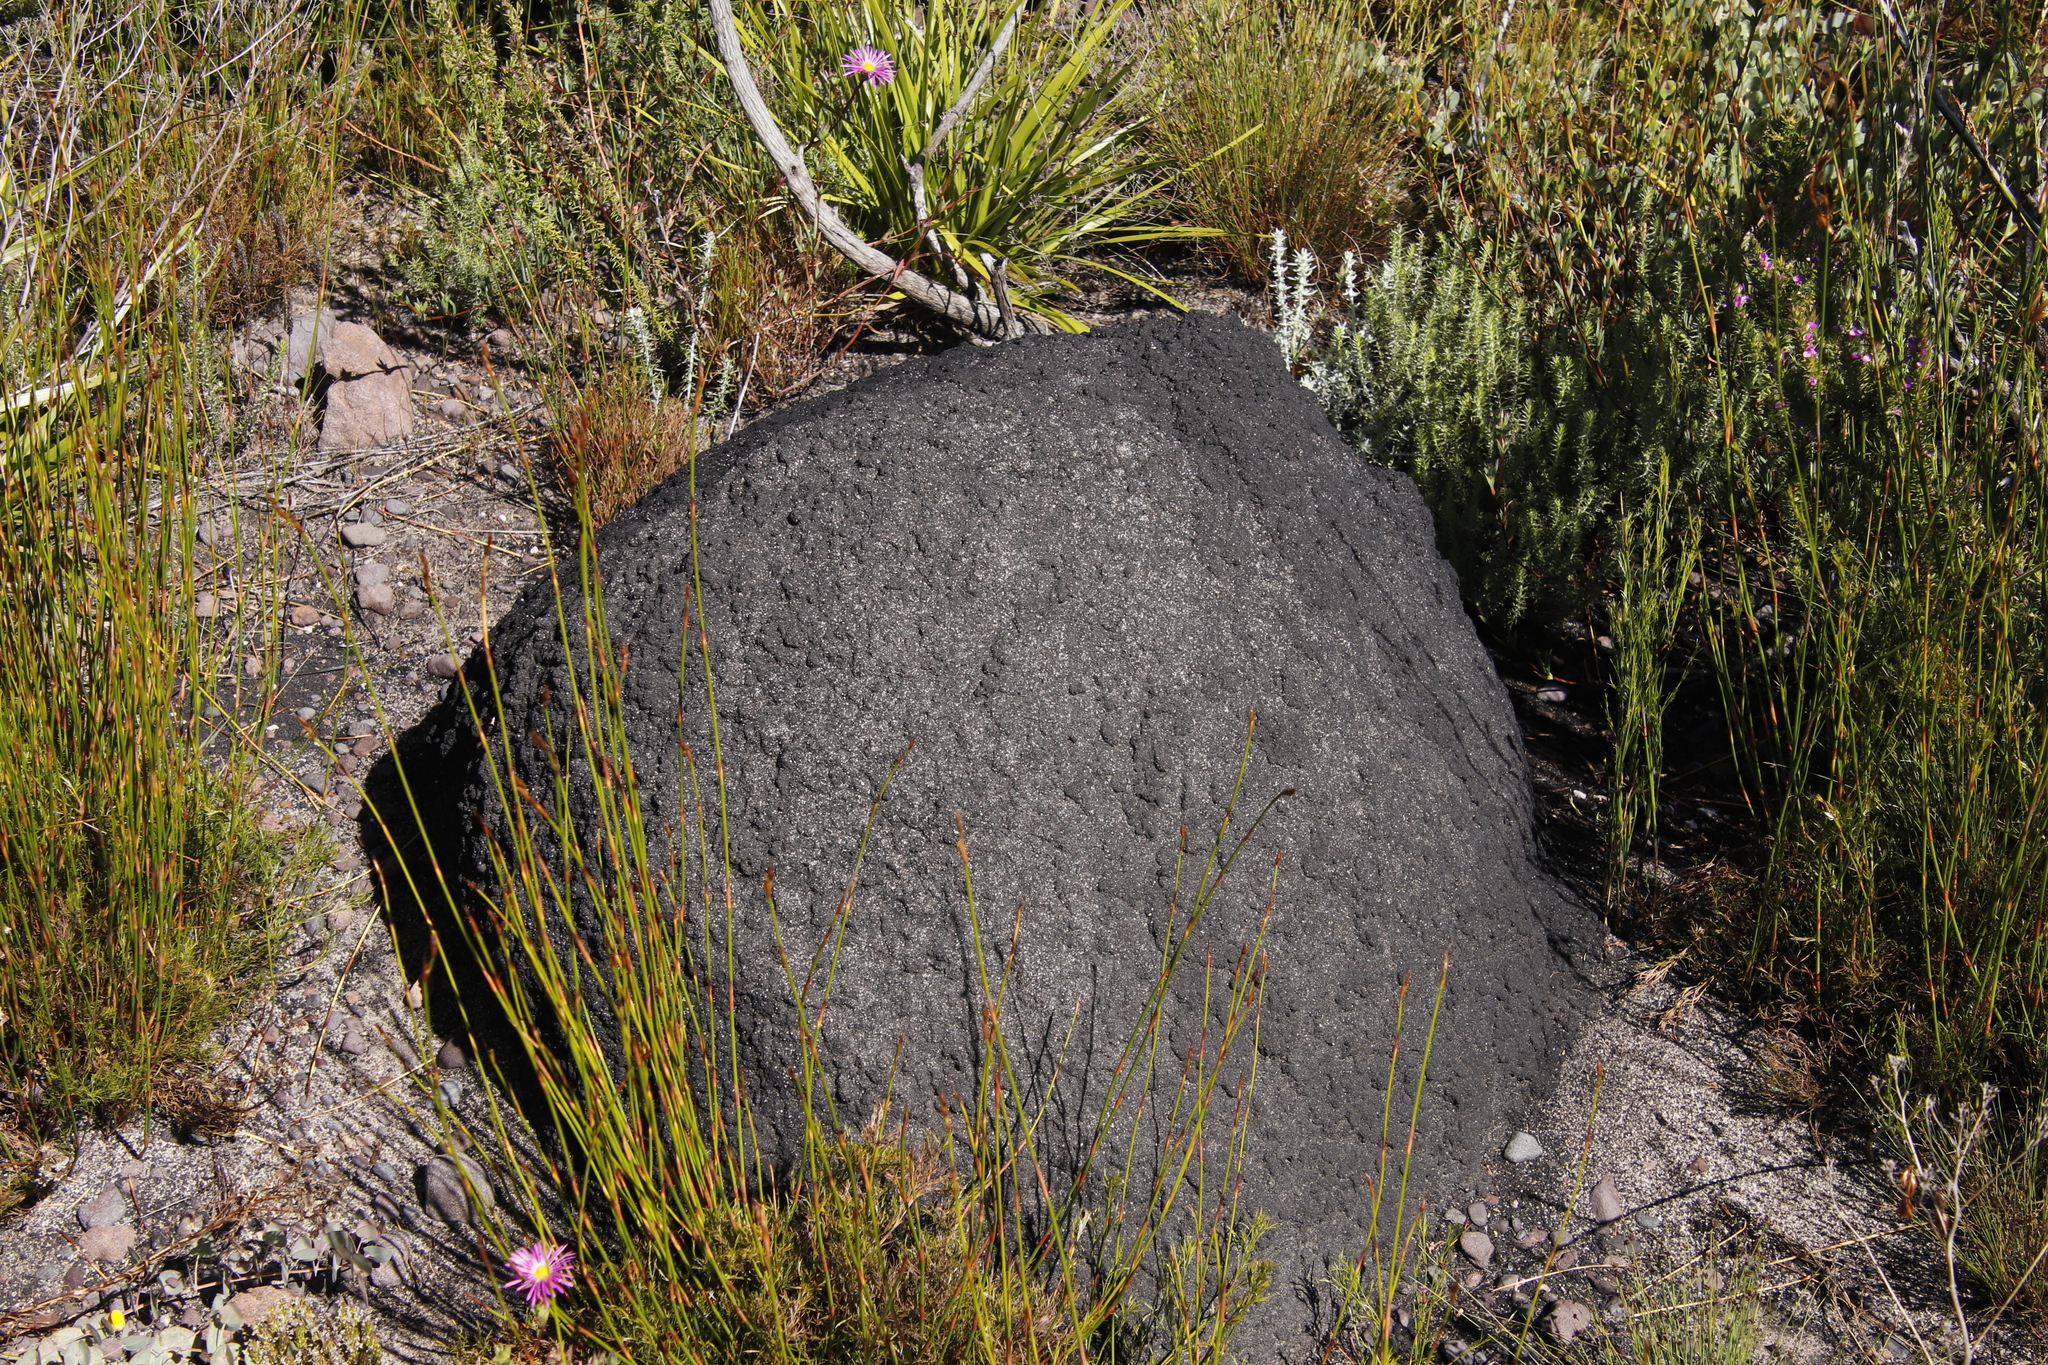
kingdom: Animalia
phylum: Arthropoda
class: Insecta
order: Blattodea
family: Termitidae
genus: Amitermes
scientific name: Amitermes hastatus
